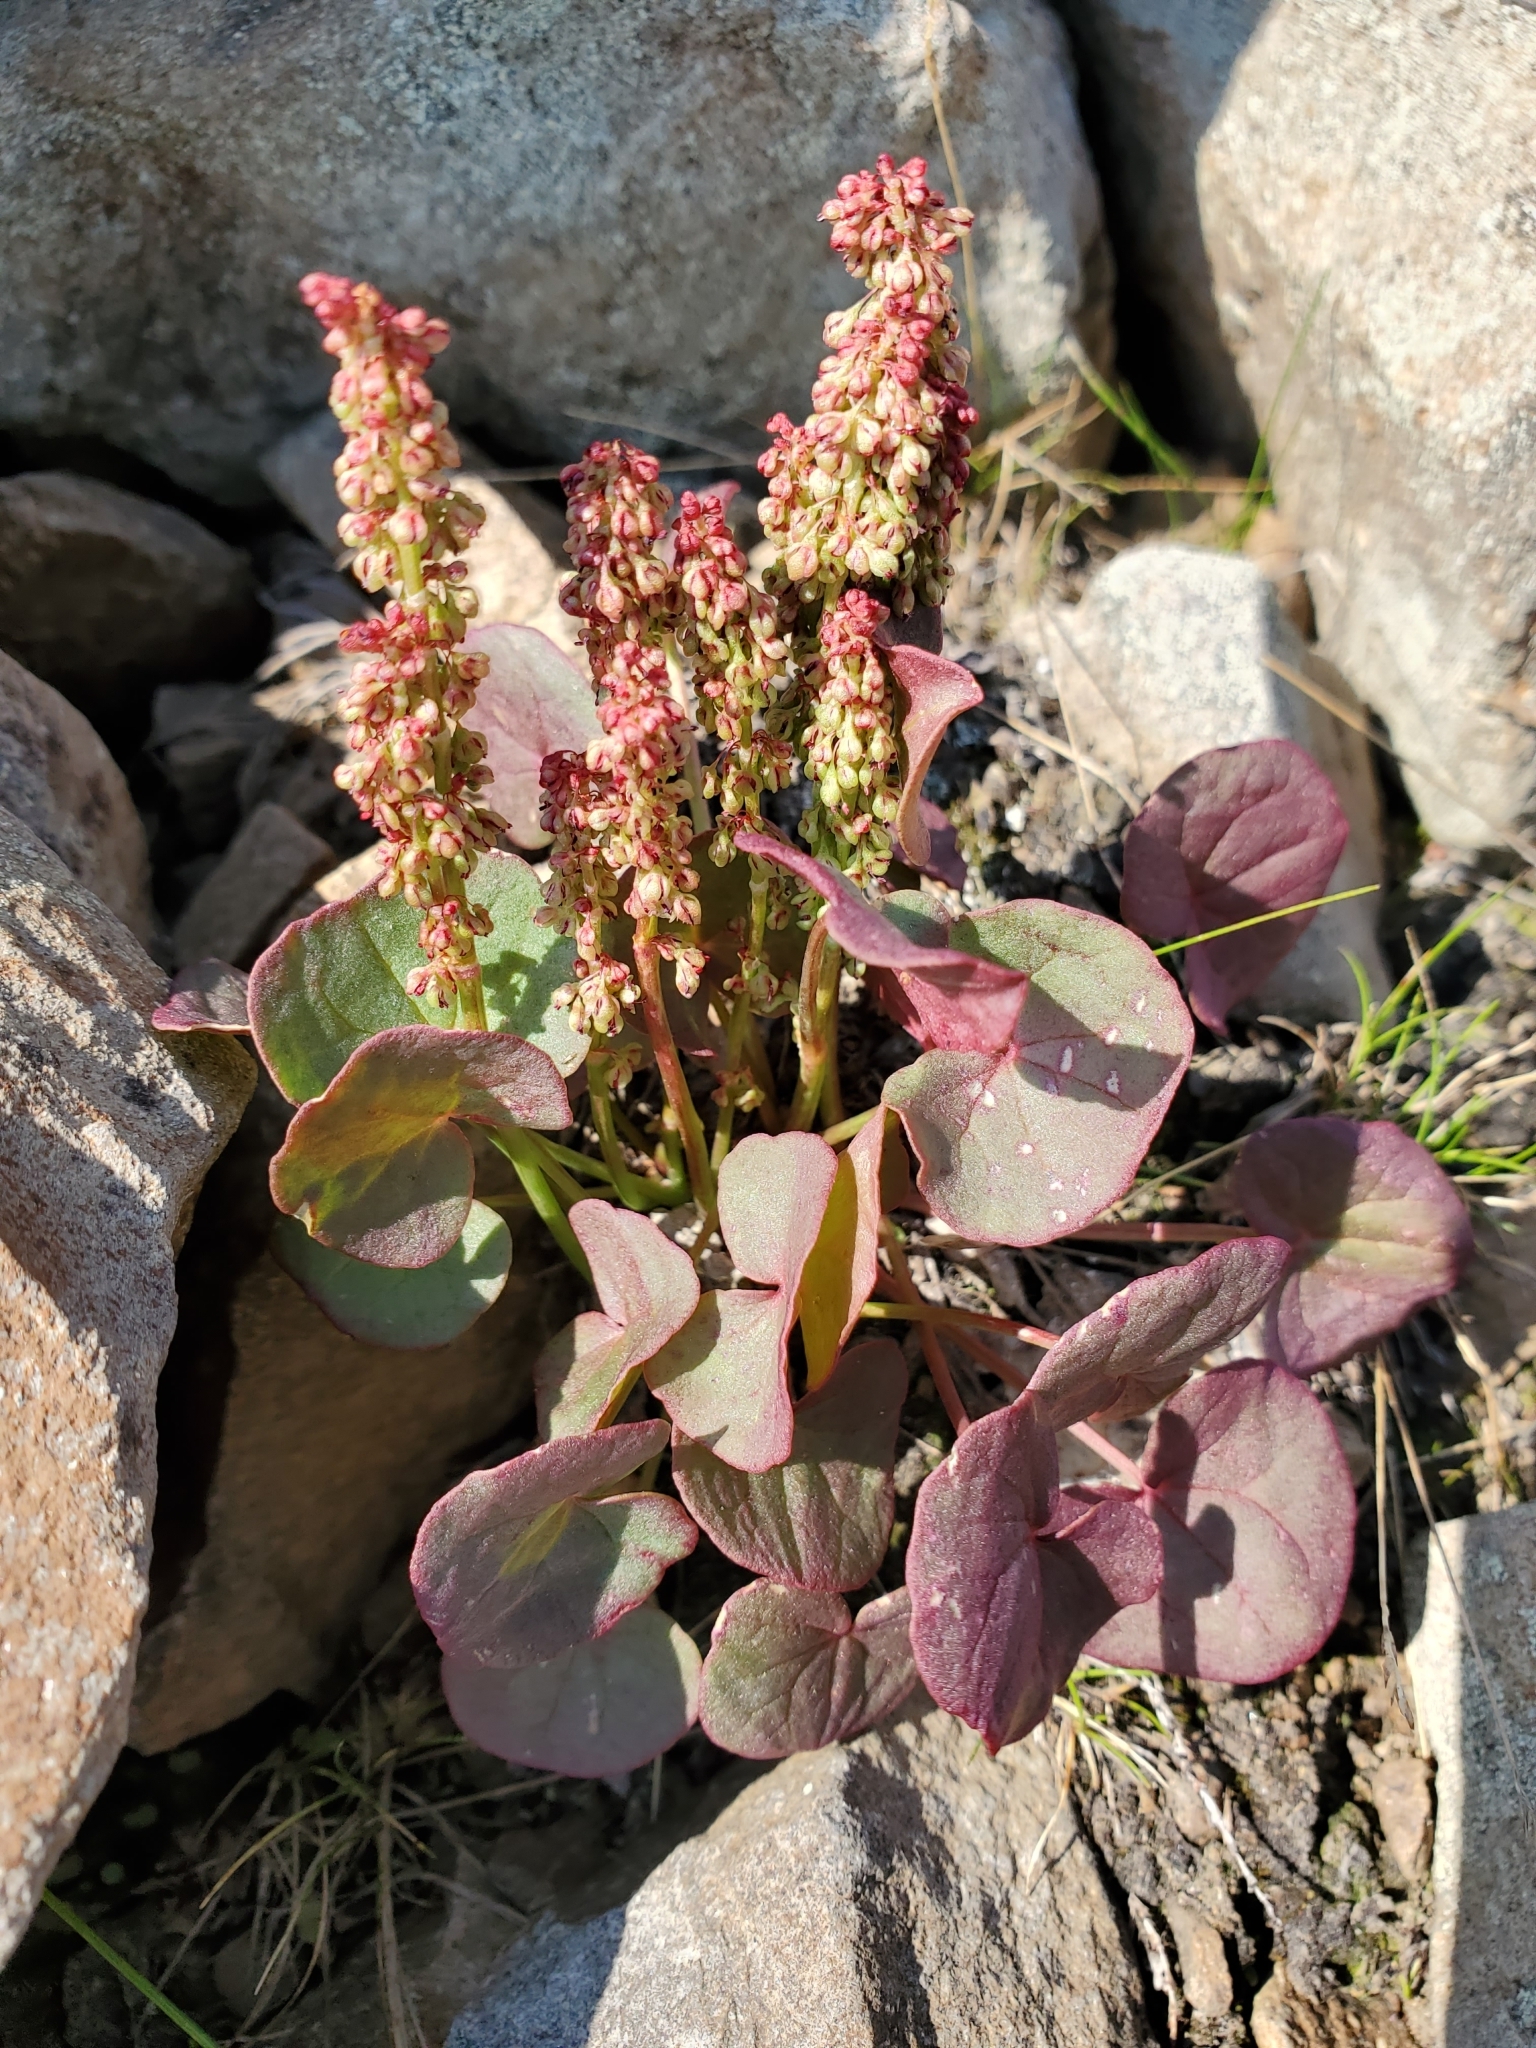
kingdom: Plantae
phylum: Tracheophyta
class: Magnoliopsida
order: Caryophyllales
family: Polygonaceae
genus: Oxyria
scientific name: Oxyria digyna
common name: Alpine mountain-sorrel
